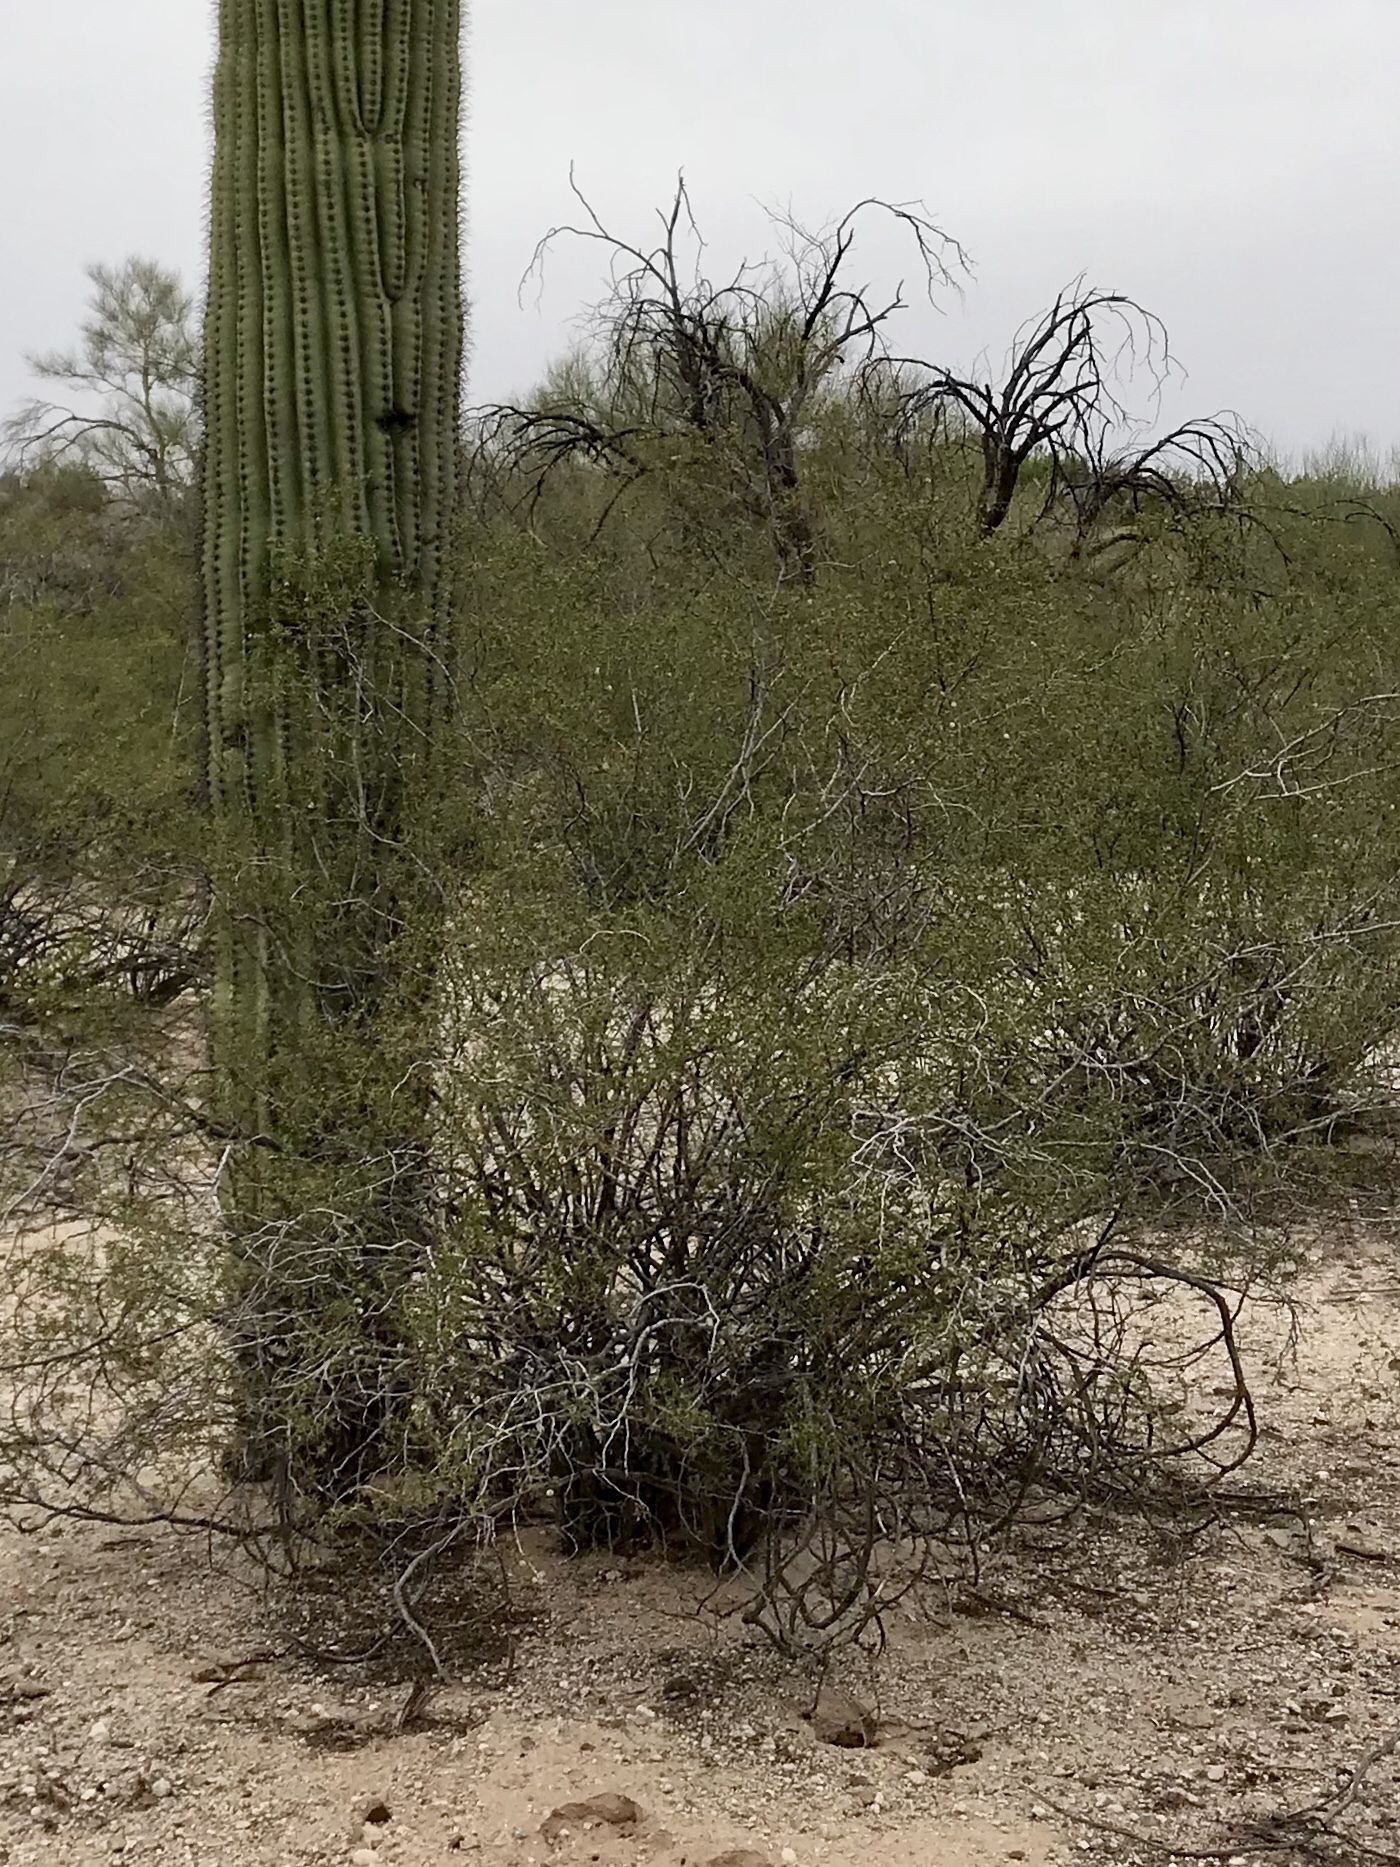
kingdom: Plantae
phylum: Tracheophyta
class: Magnoliopsida
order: Zygophyllales
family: Zygophyllaceae
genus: Larrea
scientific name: Larrea tridentata
